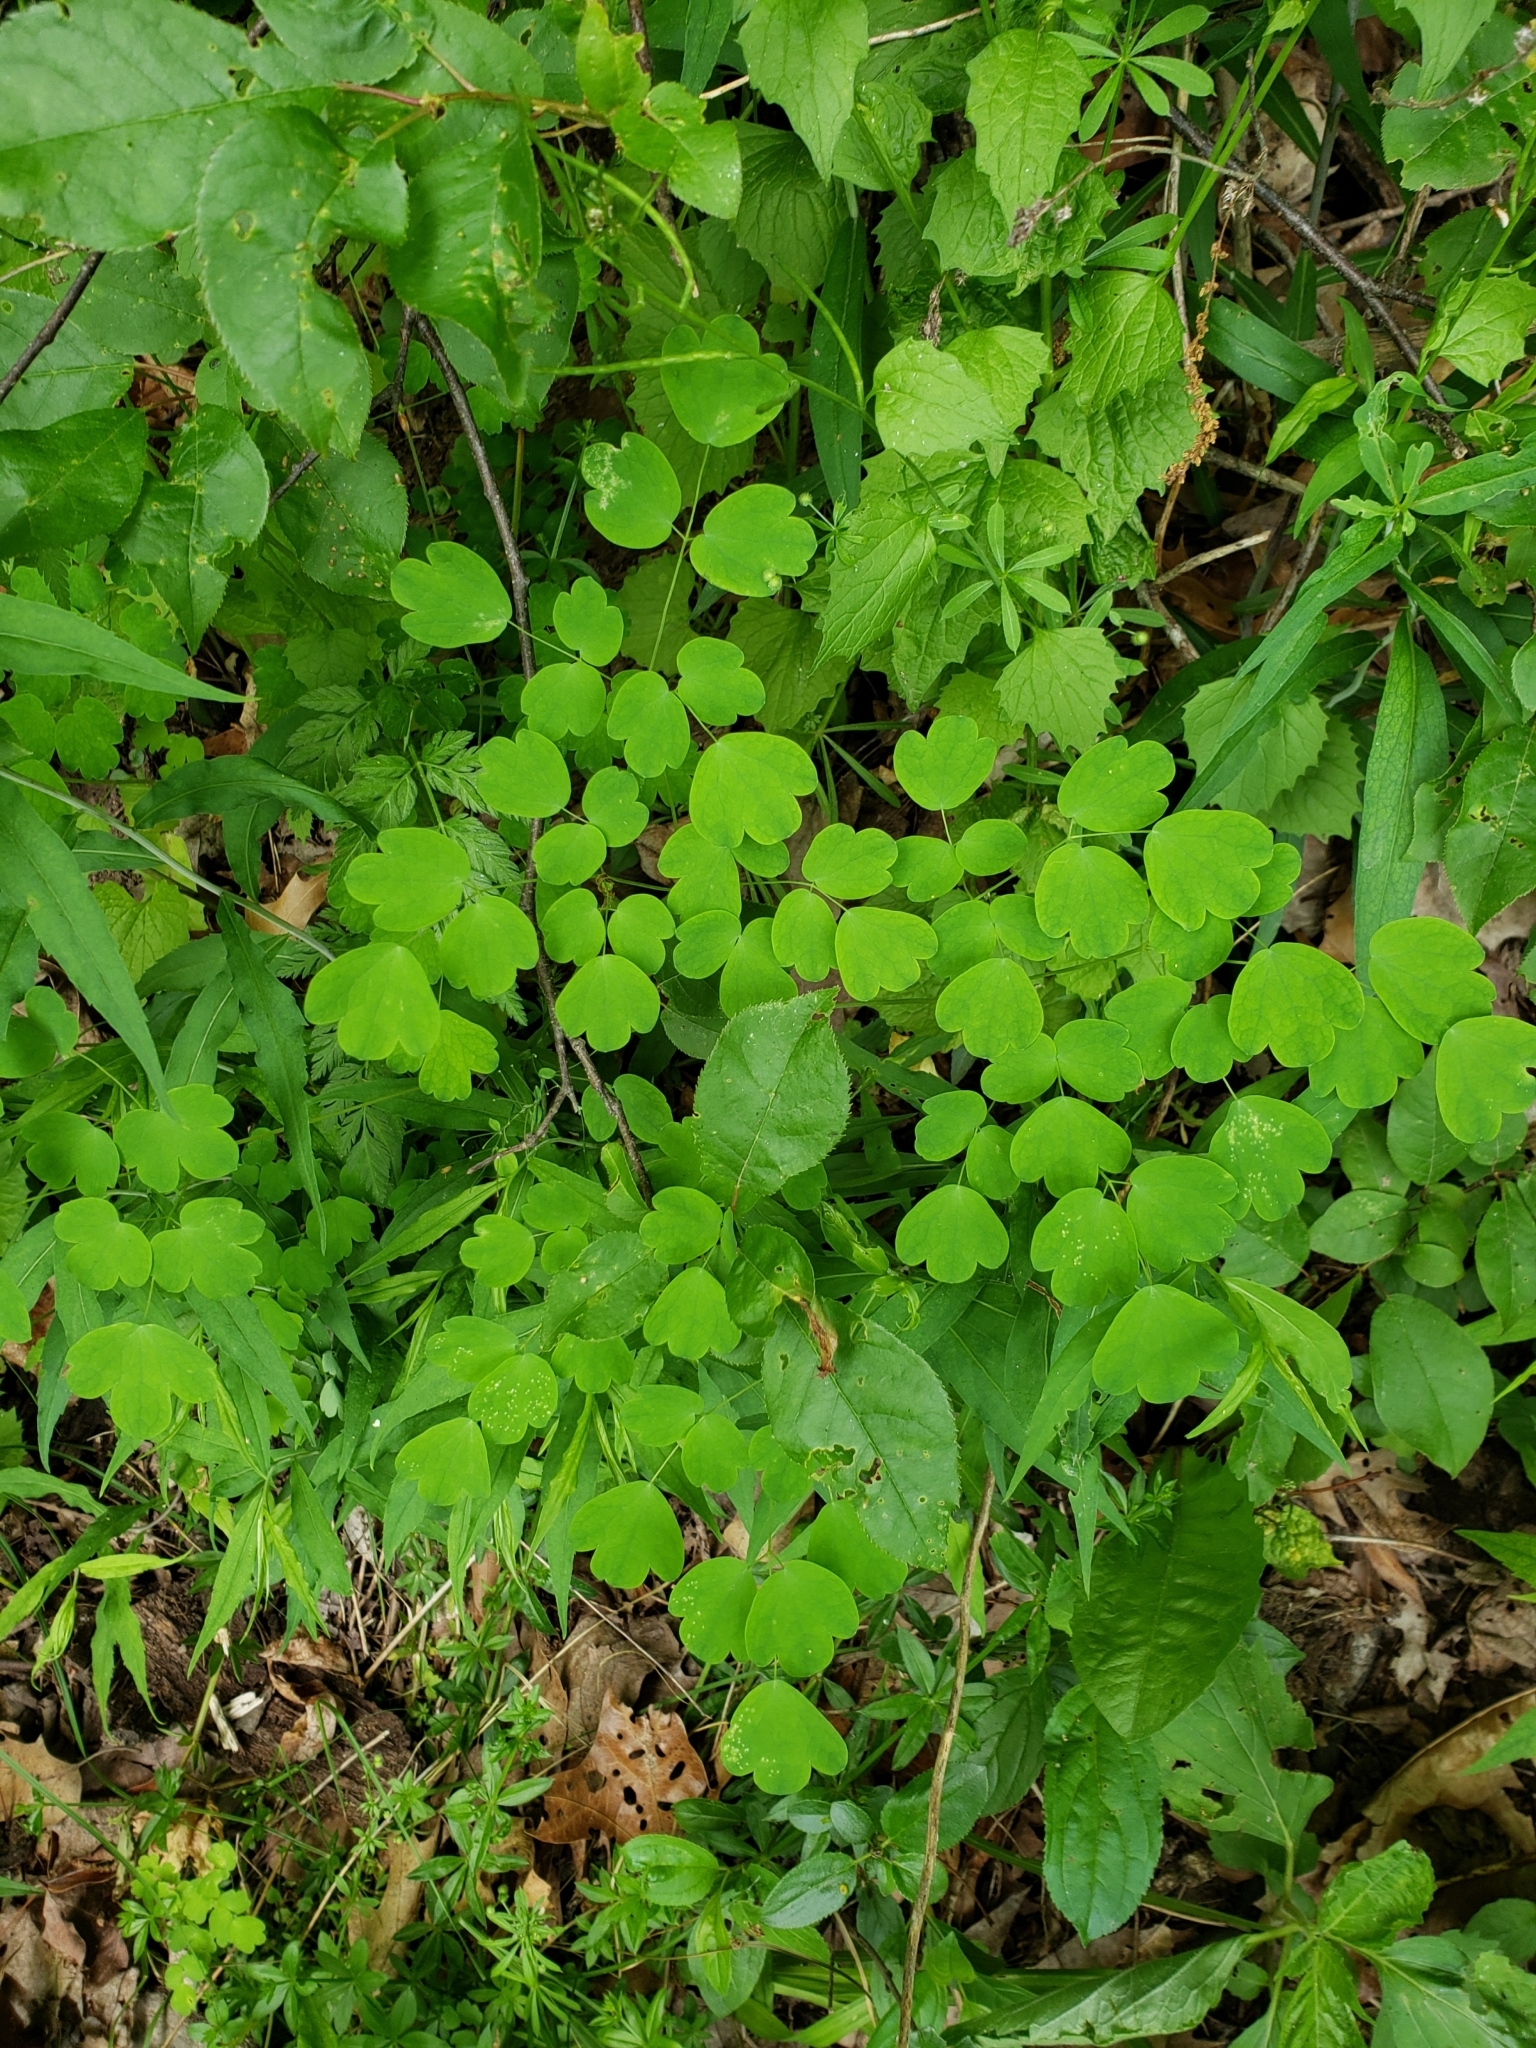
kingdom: Plantae
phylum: Tracheophyta
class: Magnoliopsida
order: Ranunculales
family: Ranunculaceae
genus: Thalictrum
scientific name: Thalictrum dioicum
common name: Early meadow-rue
